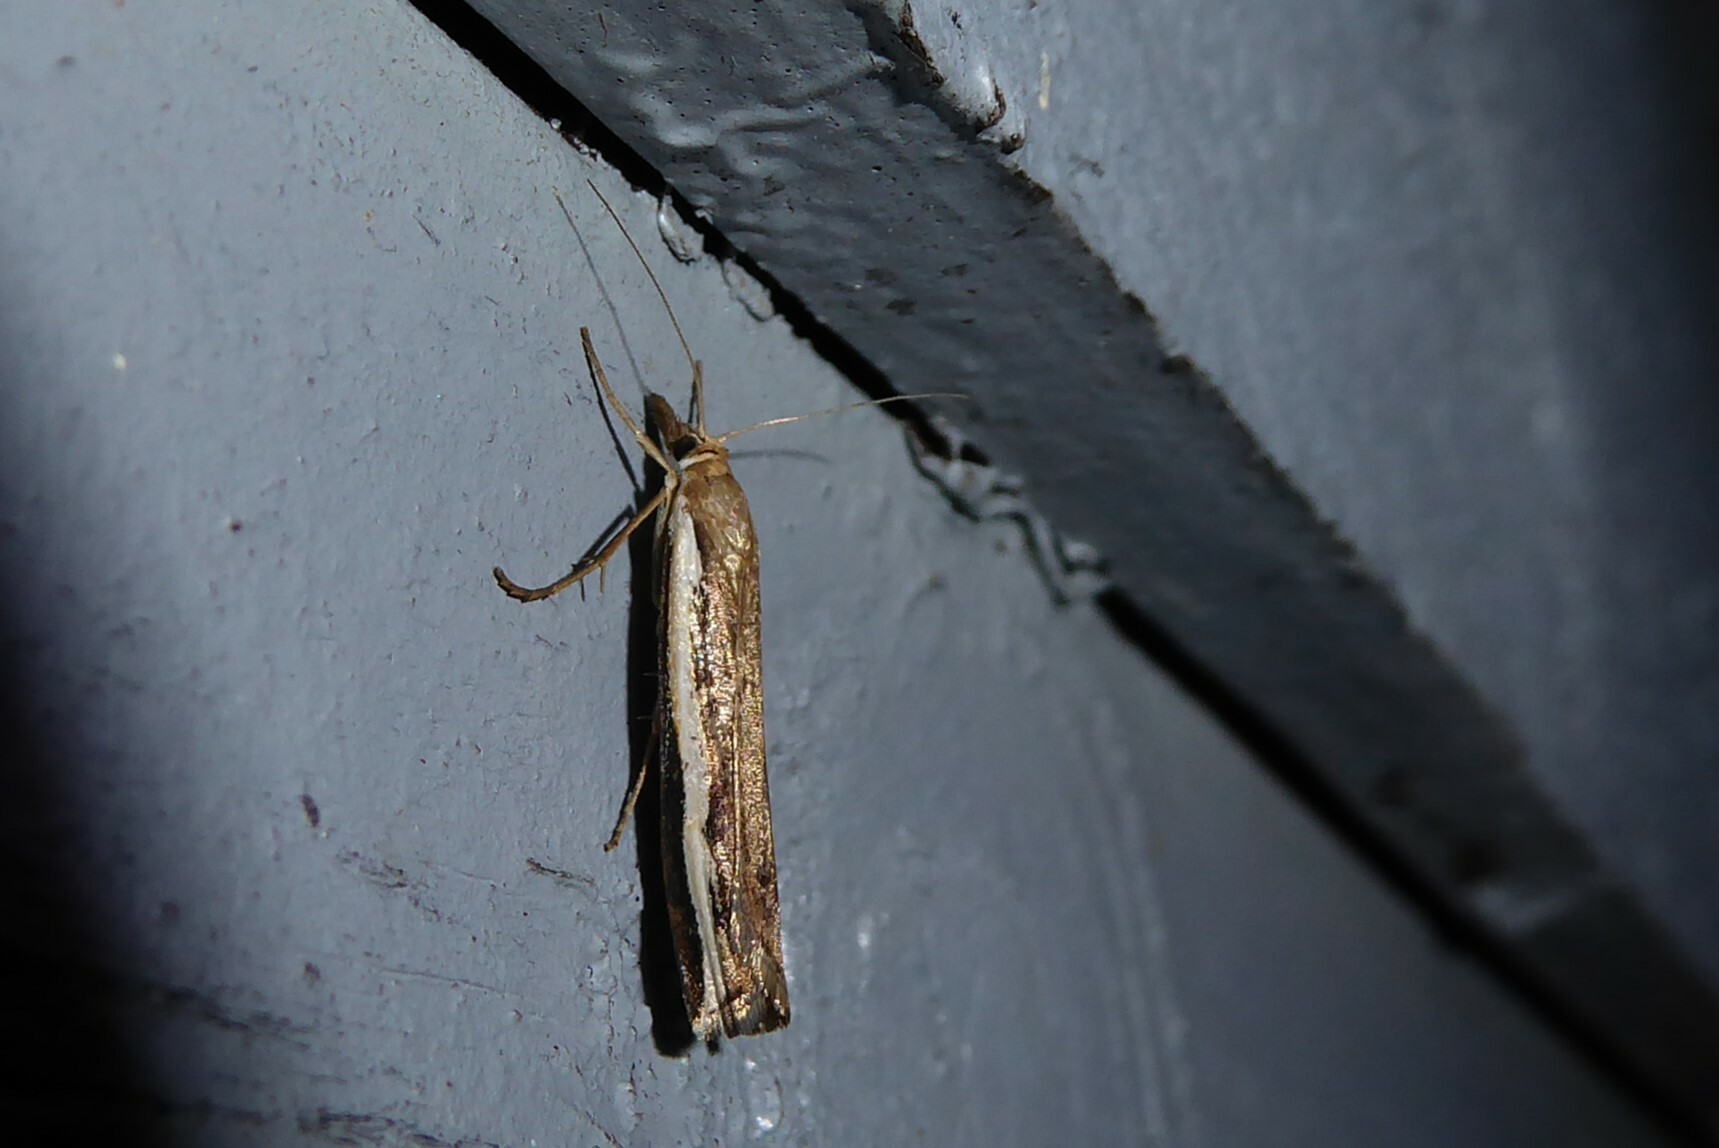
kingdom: Animalia
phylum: Arthropoda
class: Insecta
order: Lepidoptera
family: Crambidae
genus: Orocrambus
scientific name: Orocrambus flexuosellus
